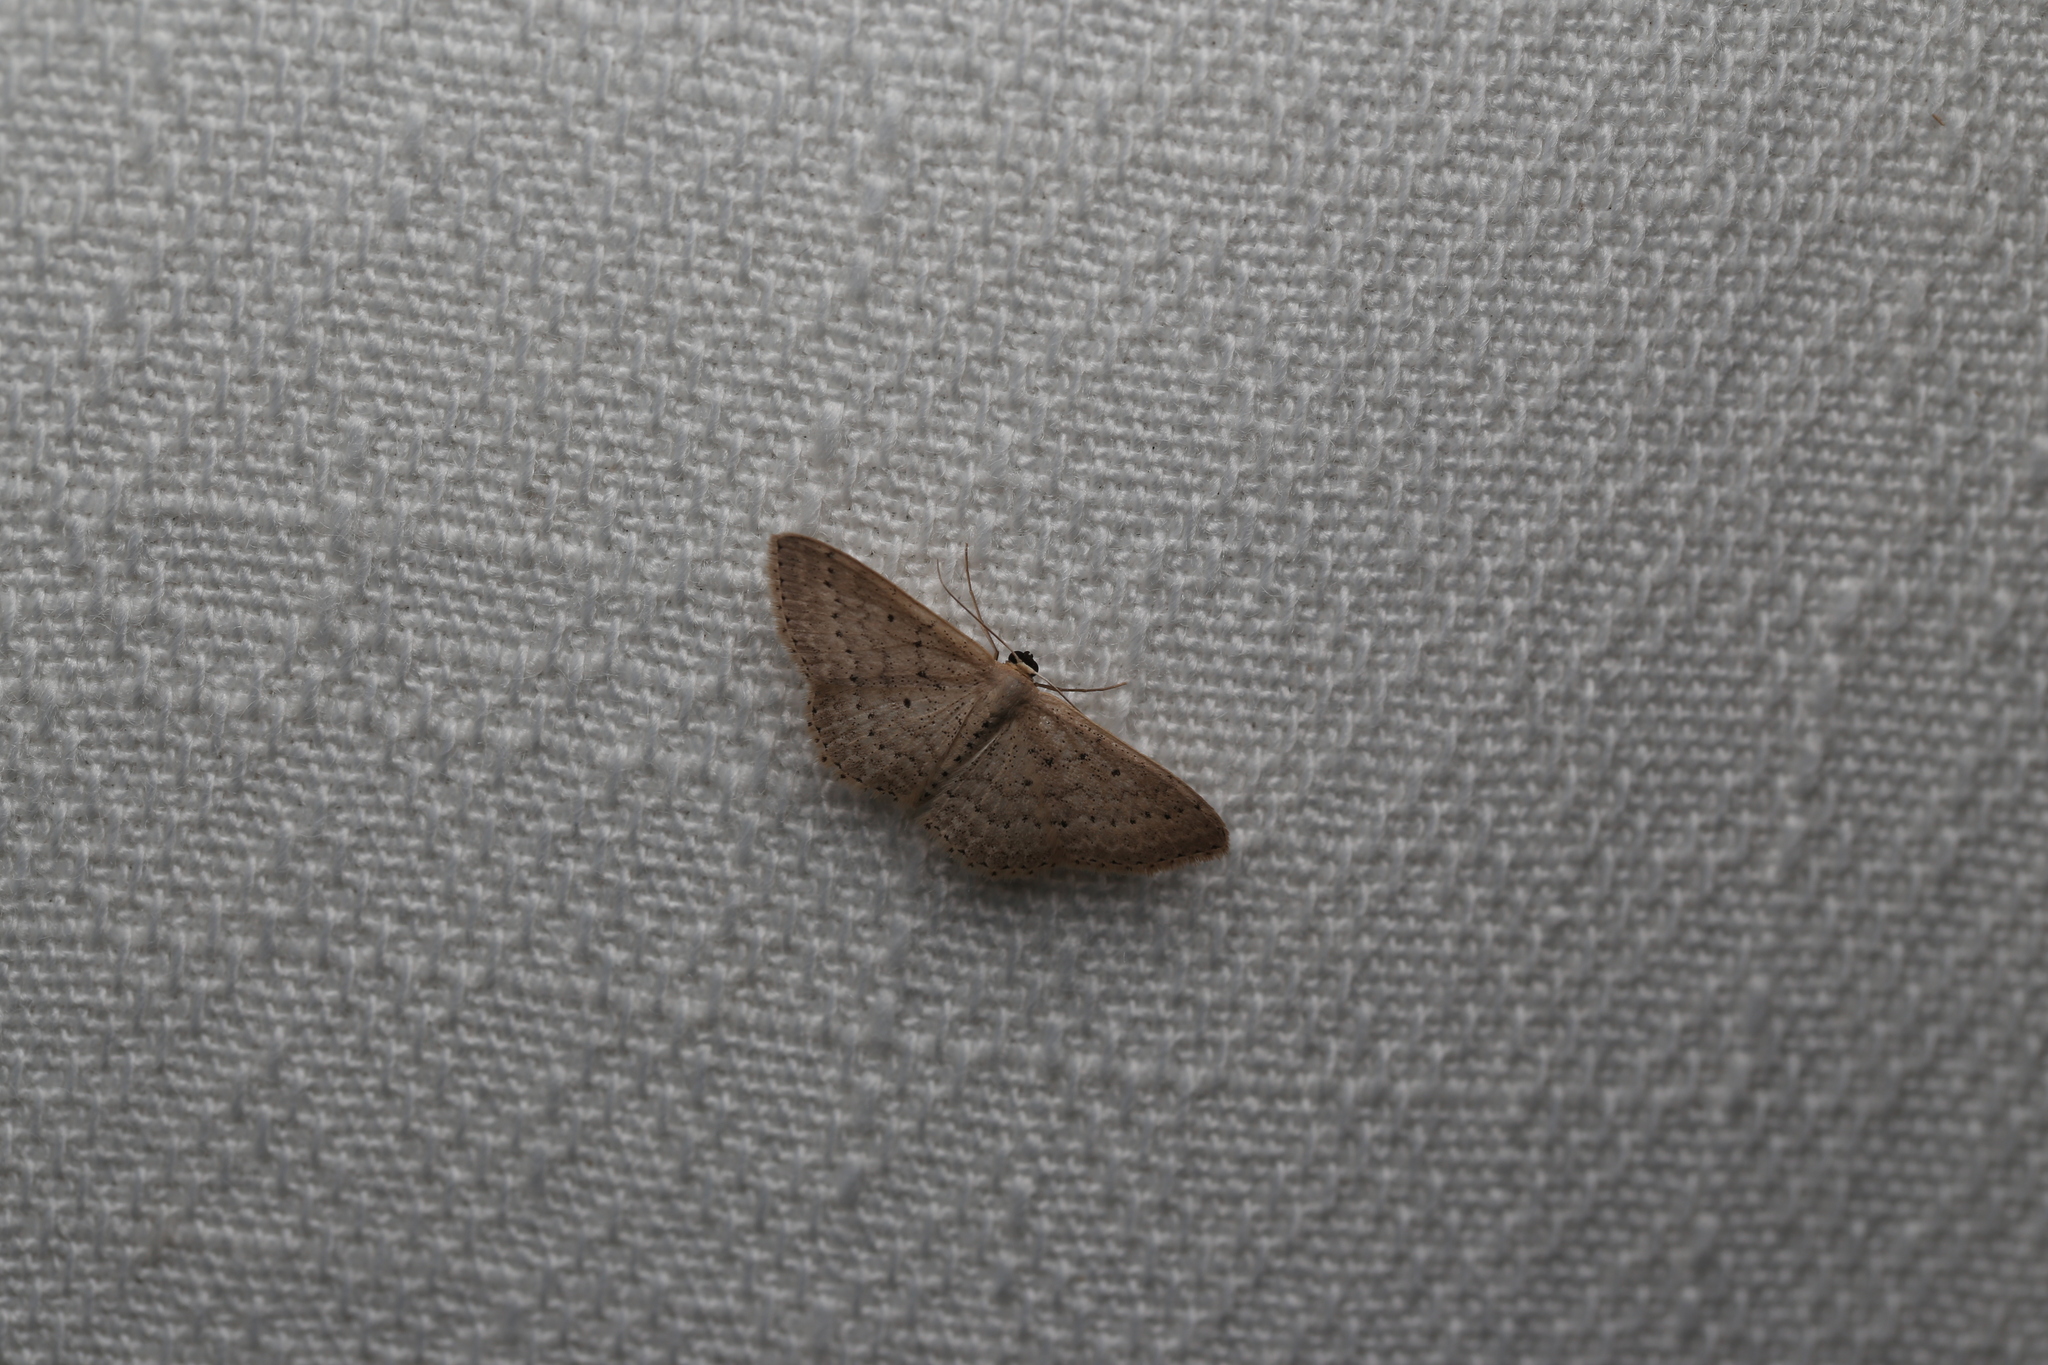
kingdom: Animalia
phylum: Arthropoda
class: Insecta
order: Lepidoptera
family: Geometridae
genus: Scopula
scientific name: Scopula sublinearia
